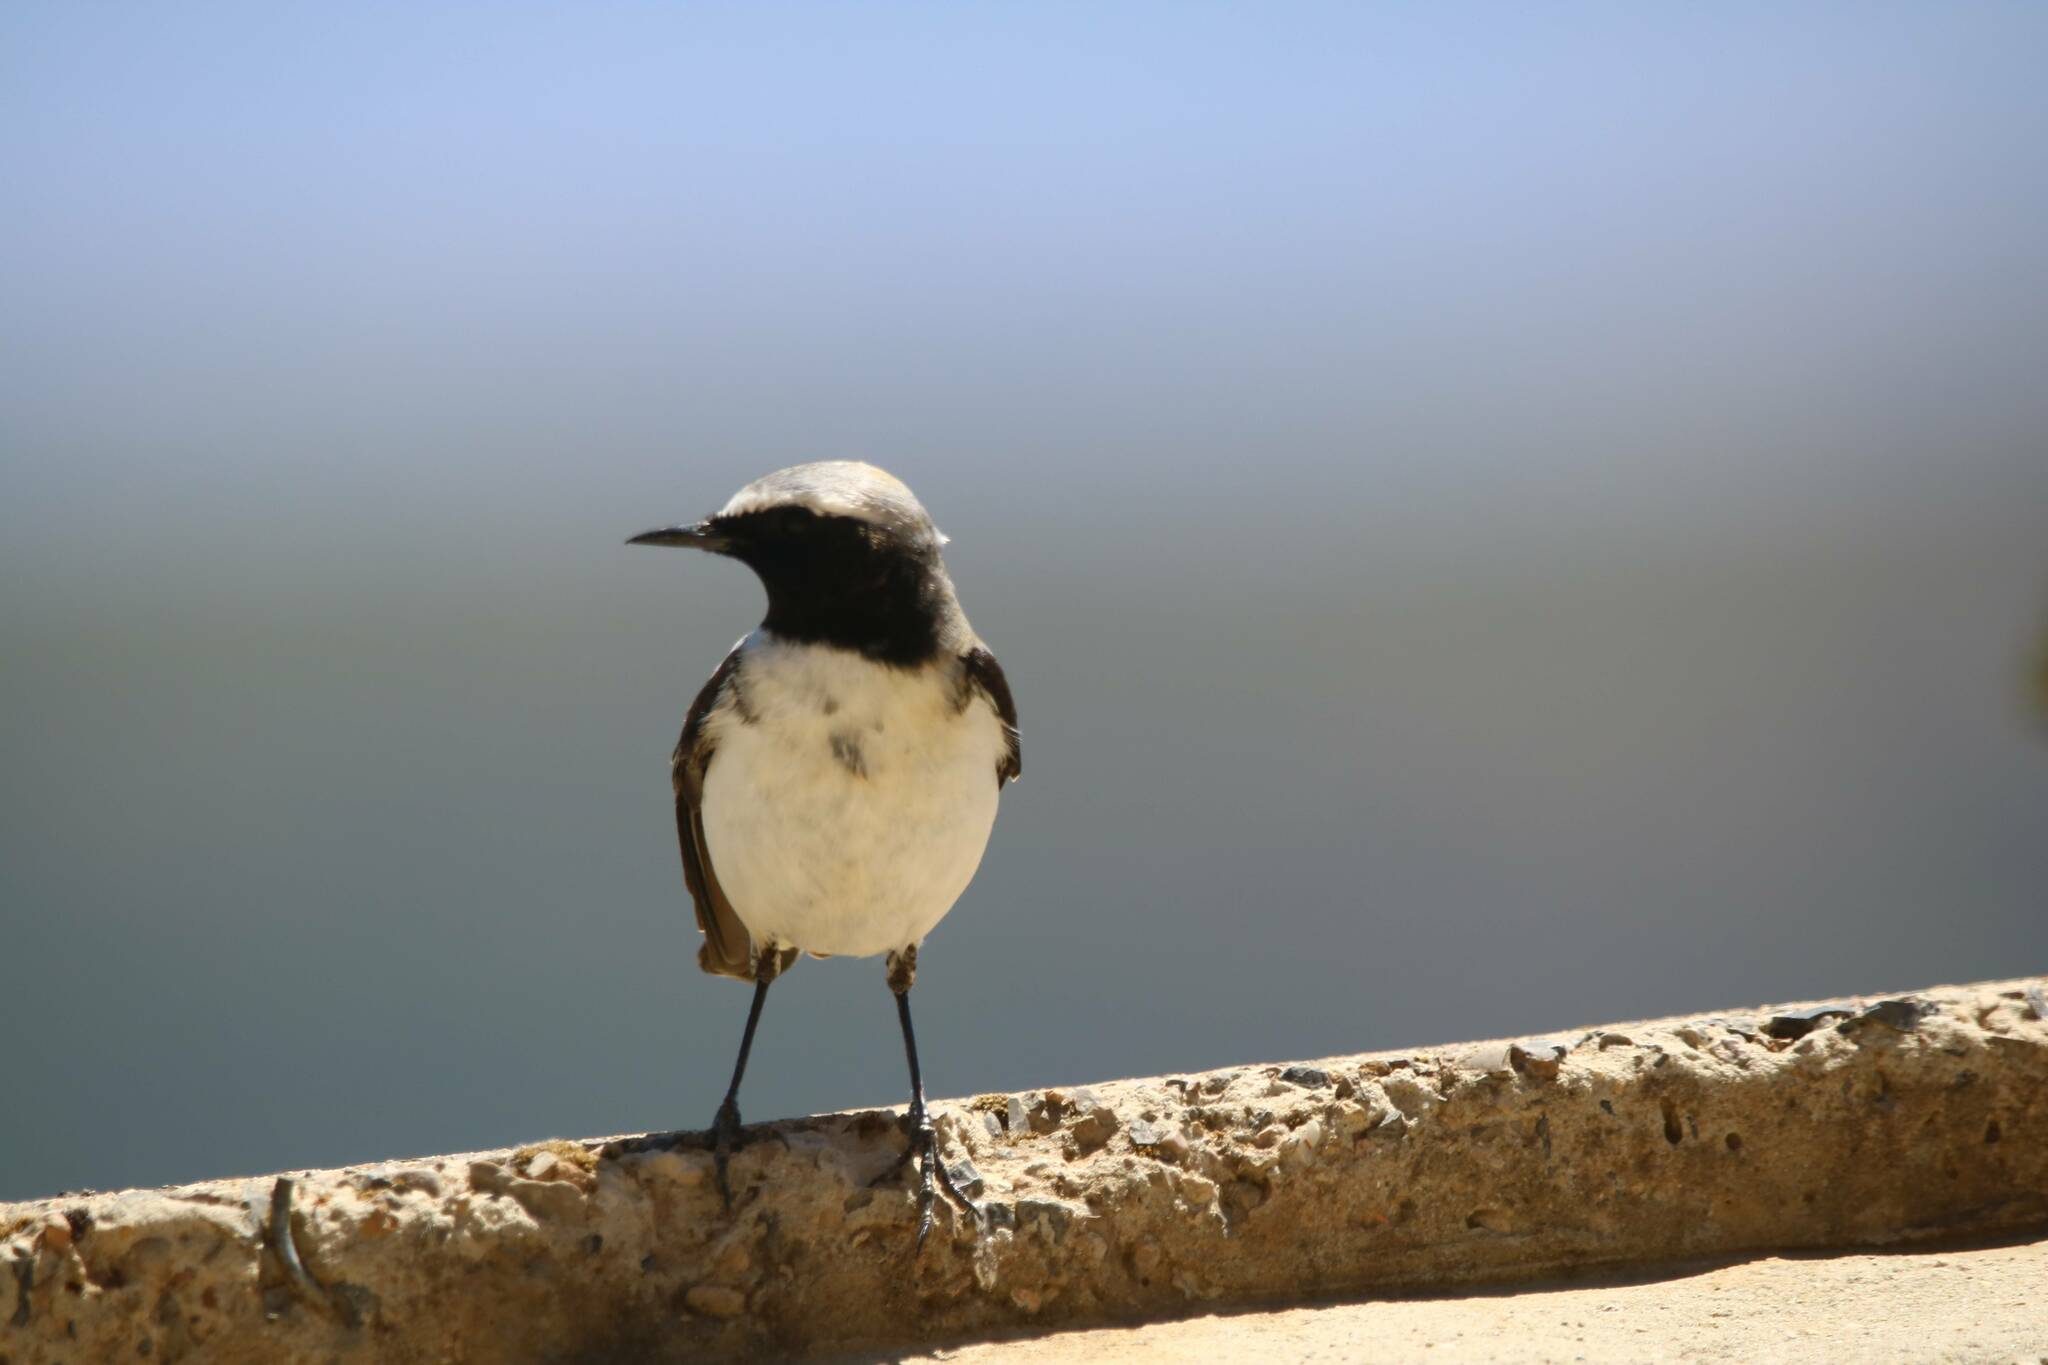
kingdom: Animalia
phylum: Chordata
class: Aves
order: Passeriformes
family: Muscicapidae
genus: Oenanthe
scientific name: Oenanthe oenanthe
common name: Northern wheatear
